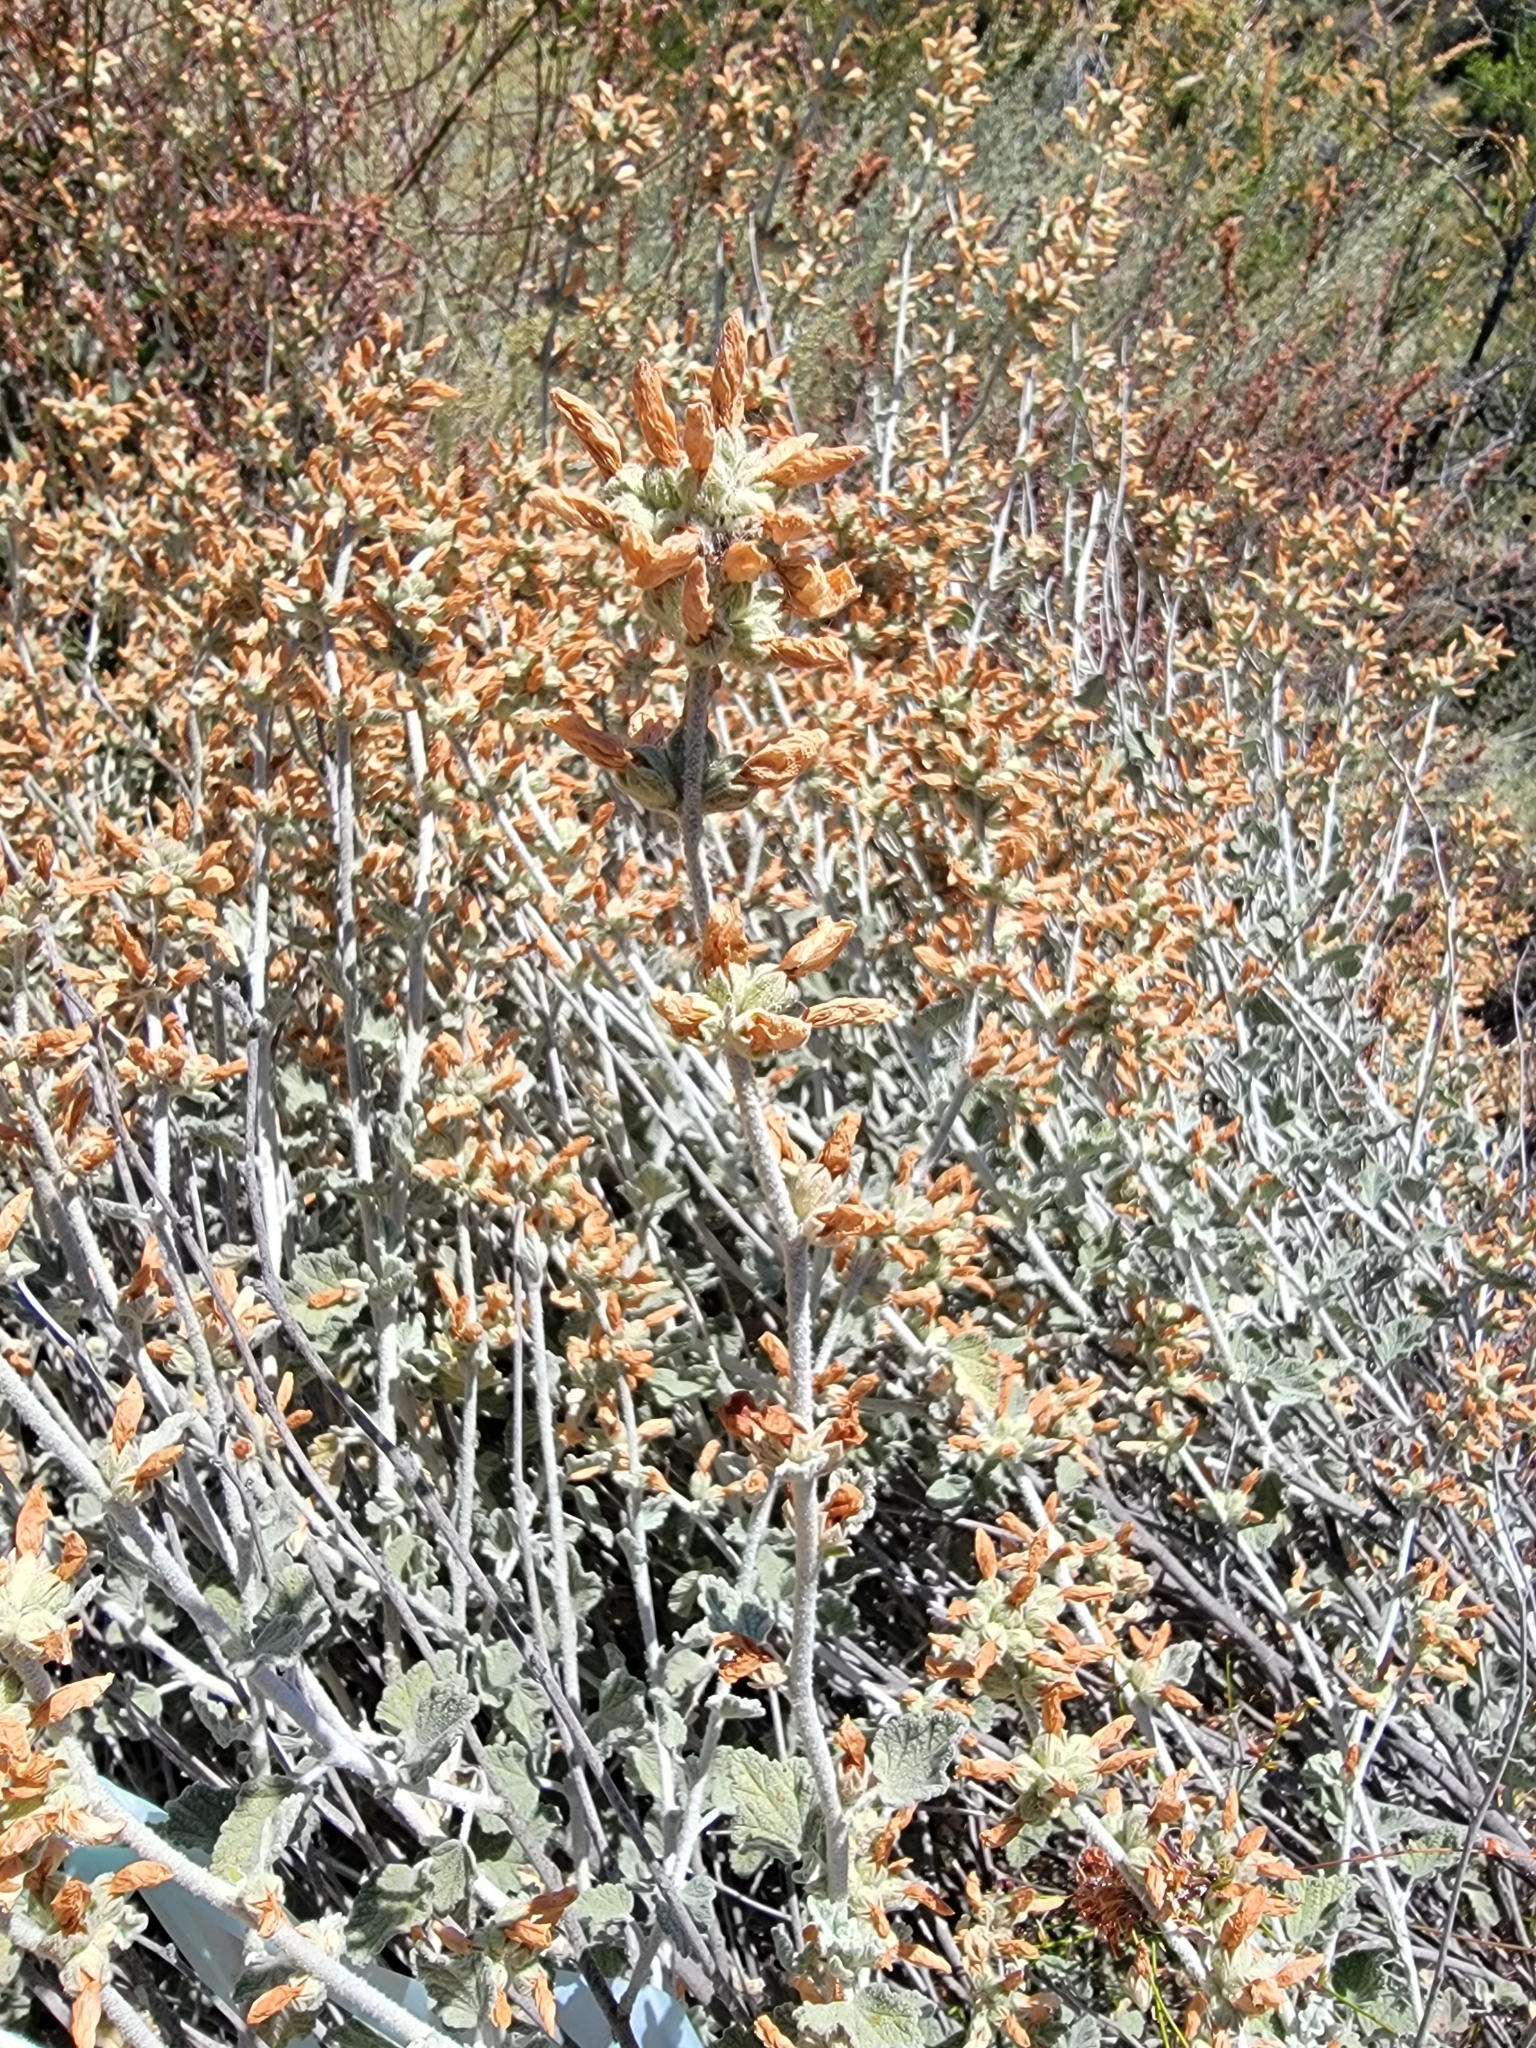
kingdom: Plantae
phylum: Tracheophyta
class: Magnoliopsida
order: Malvales
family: Malvaceae
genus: Malacothamnus
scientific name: Malacothamnus fasciculatus
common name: Sant cruz island bush-mallow
